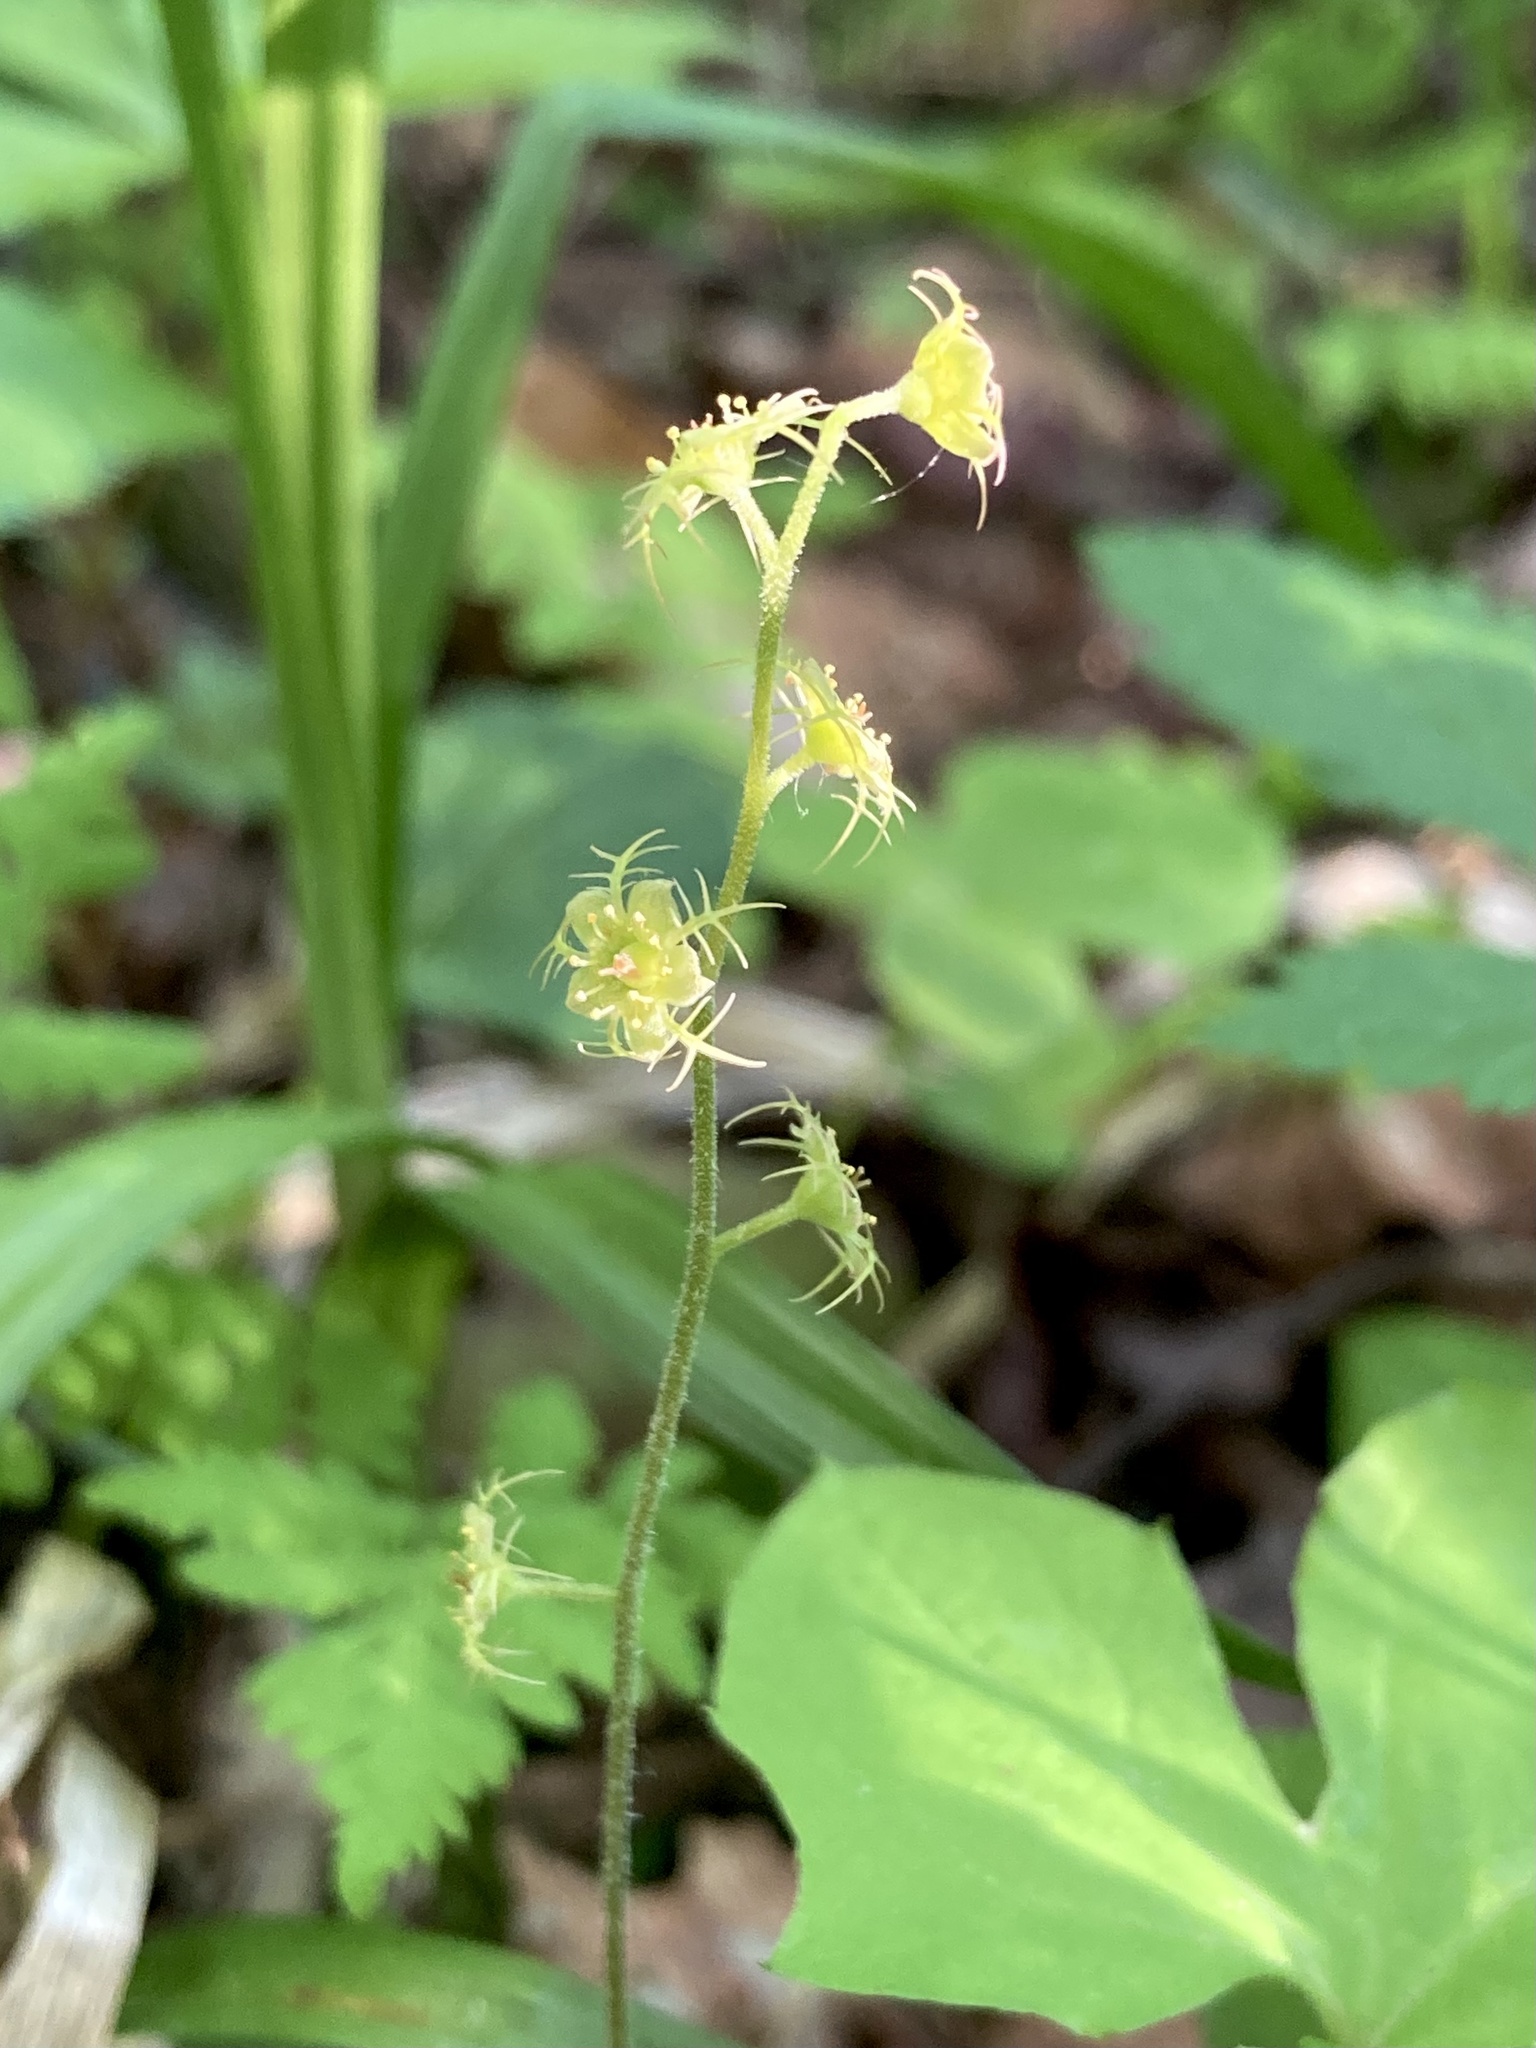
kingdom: Plantae
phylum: Tracheophyta
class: Magnoliopsida
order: Saxifragales
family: Saxifragaceae
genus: Mitella
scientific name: Mitella nuda
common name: Bare-stemmed bishop's-cap
